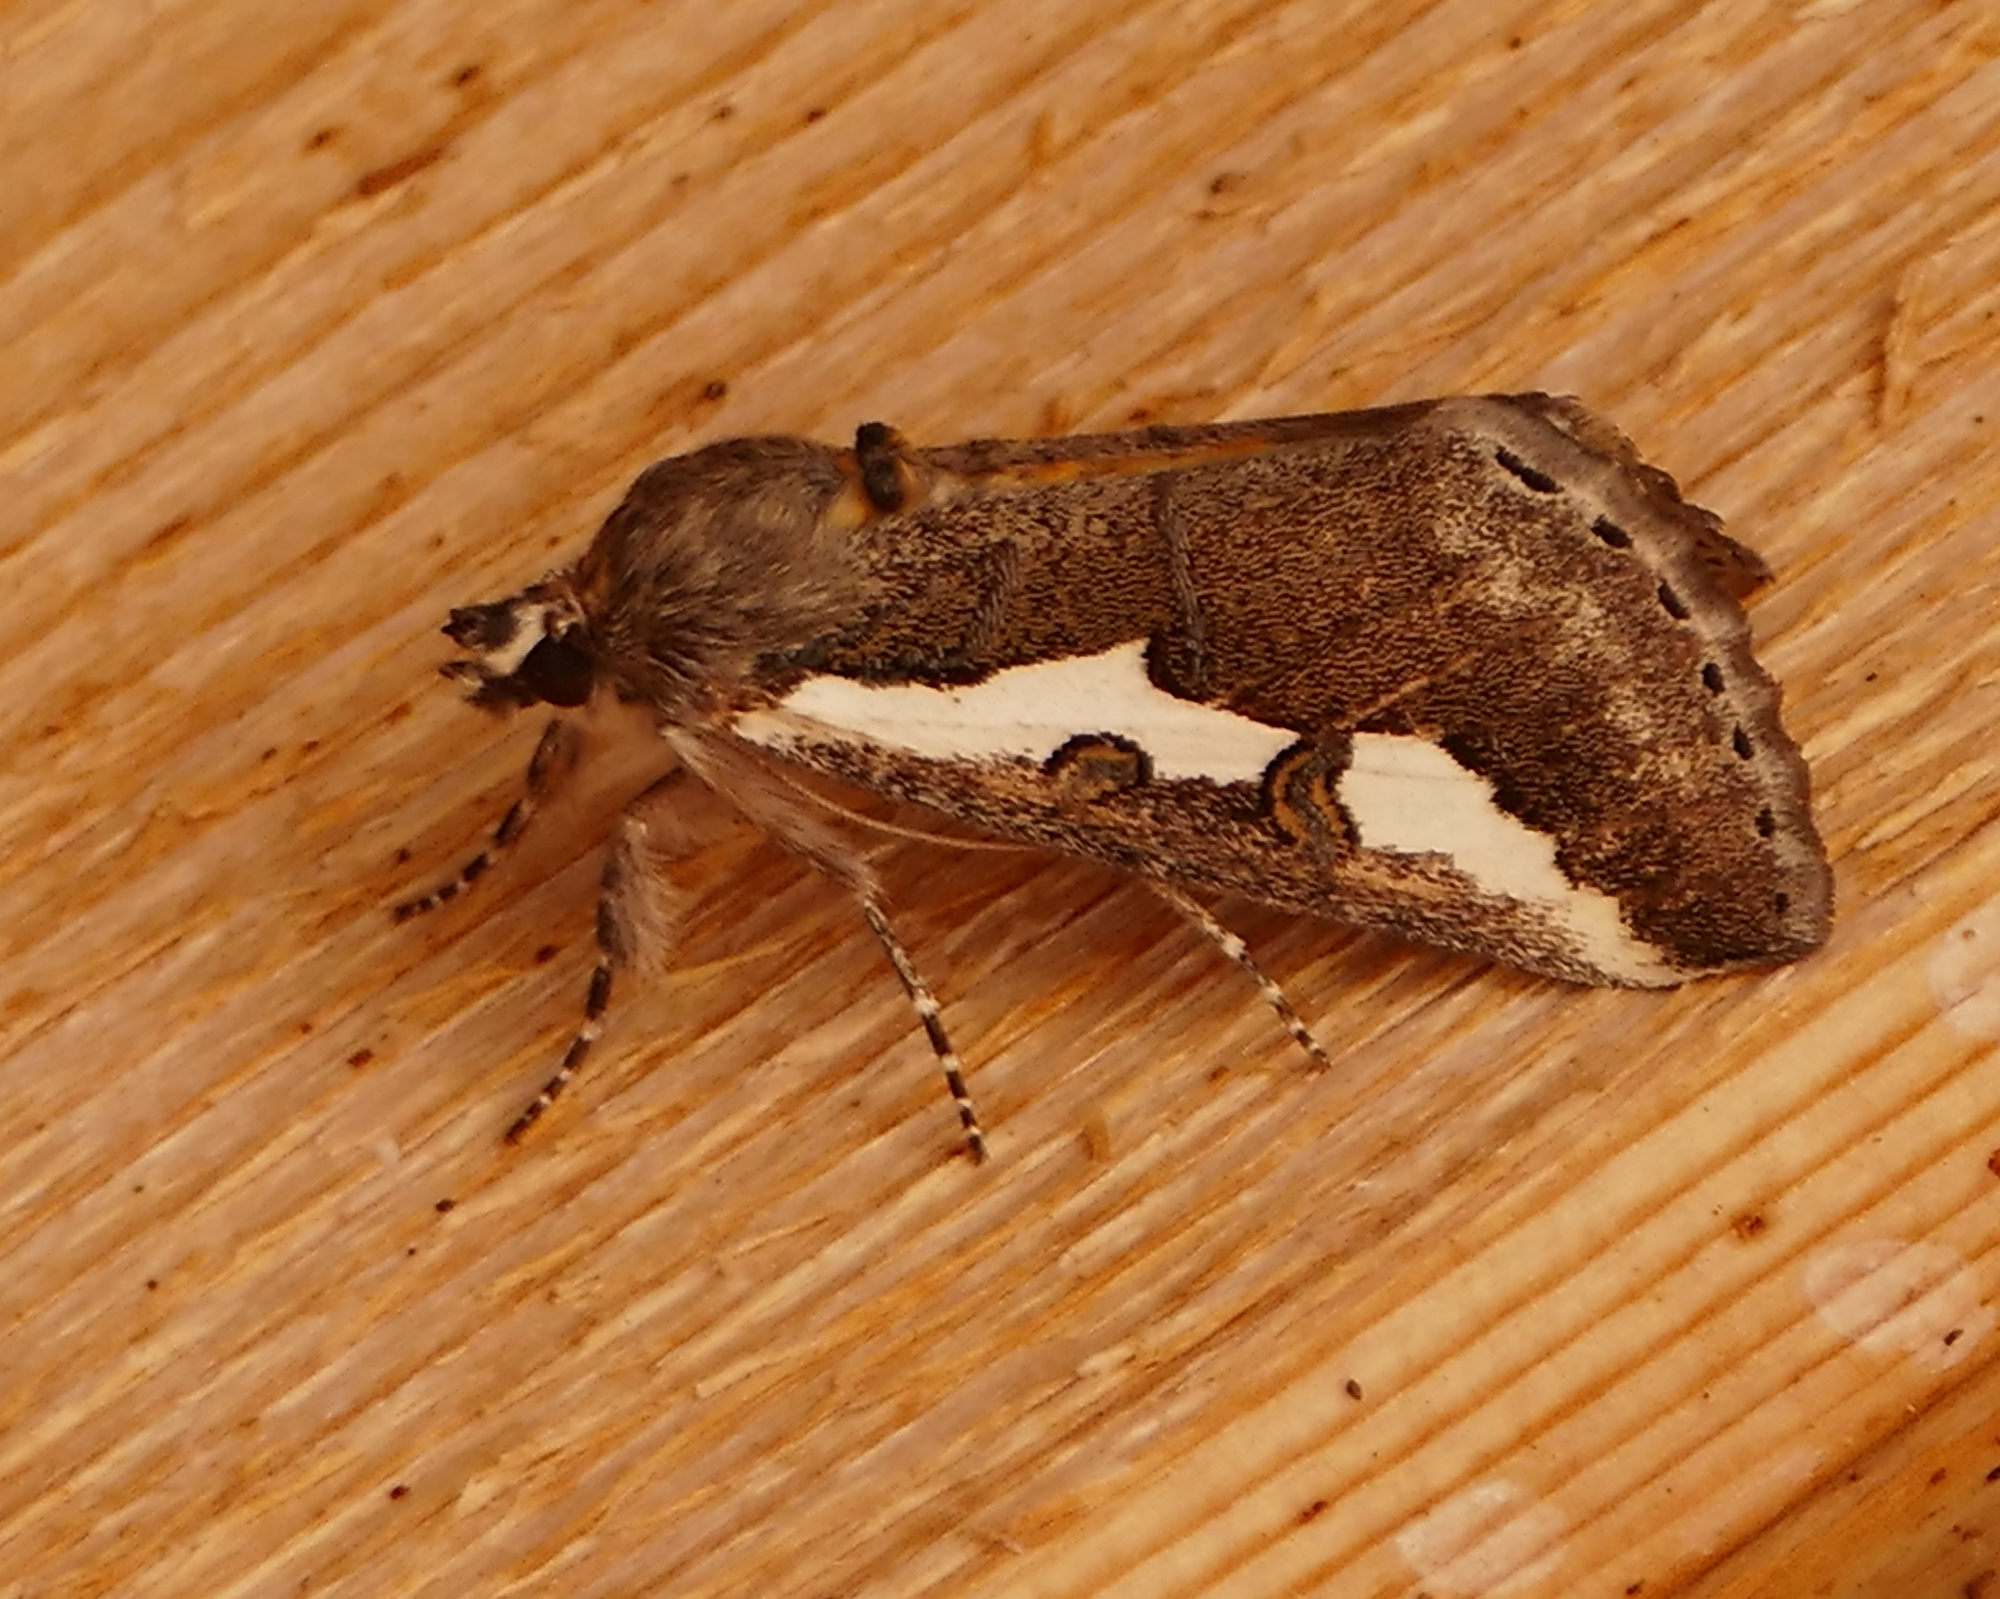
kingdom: Animalia
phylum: Arthropoda
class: Insecta
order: Lepidoptera
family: Noctuidae
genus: Euscirrhopterus
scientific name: Euscirrhopterus gloveri
